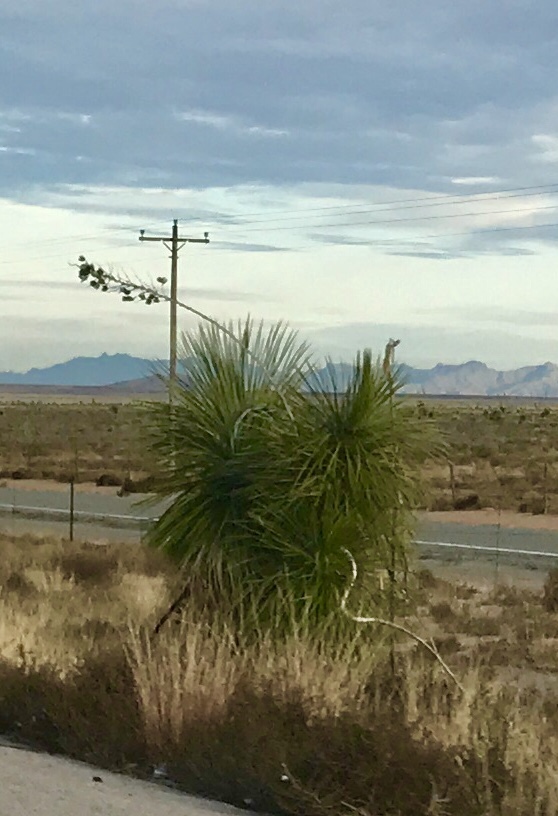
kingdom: Plantae
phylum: Tracheophyta
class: Liliopsida
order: Asparagales
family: Asparagaceae
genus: Yucca
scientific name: Yucca elata
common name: Palmella
